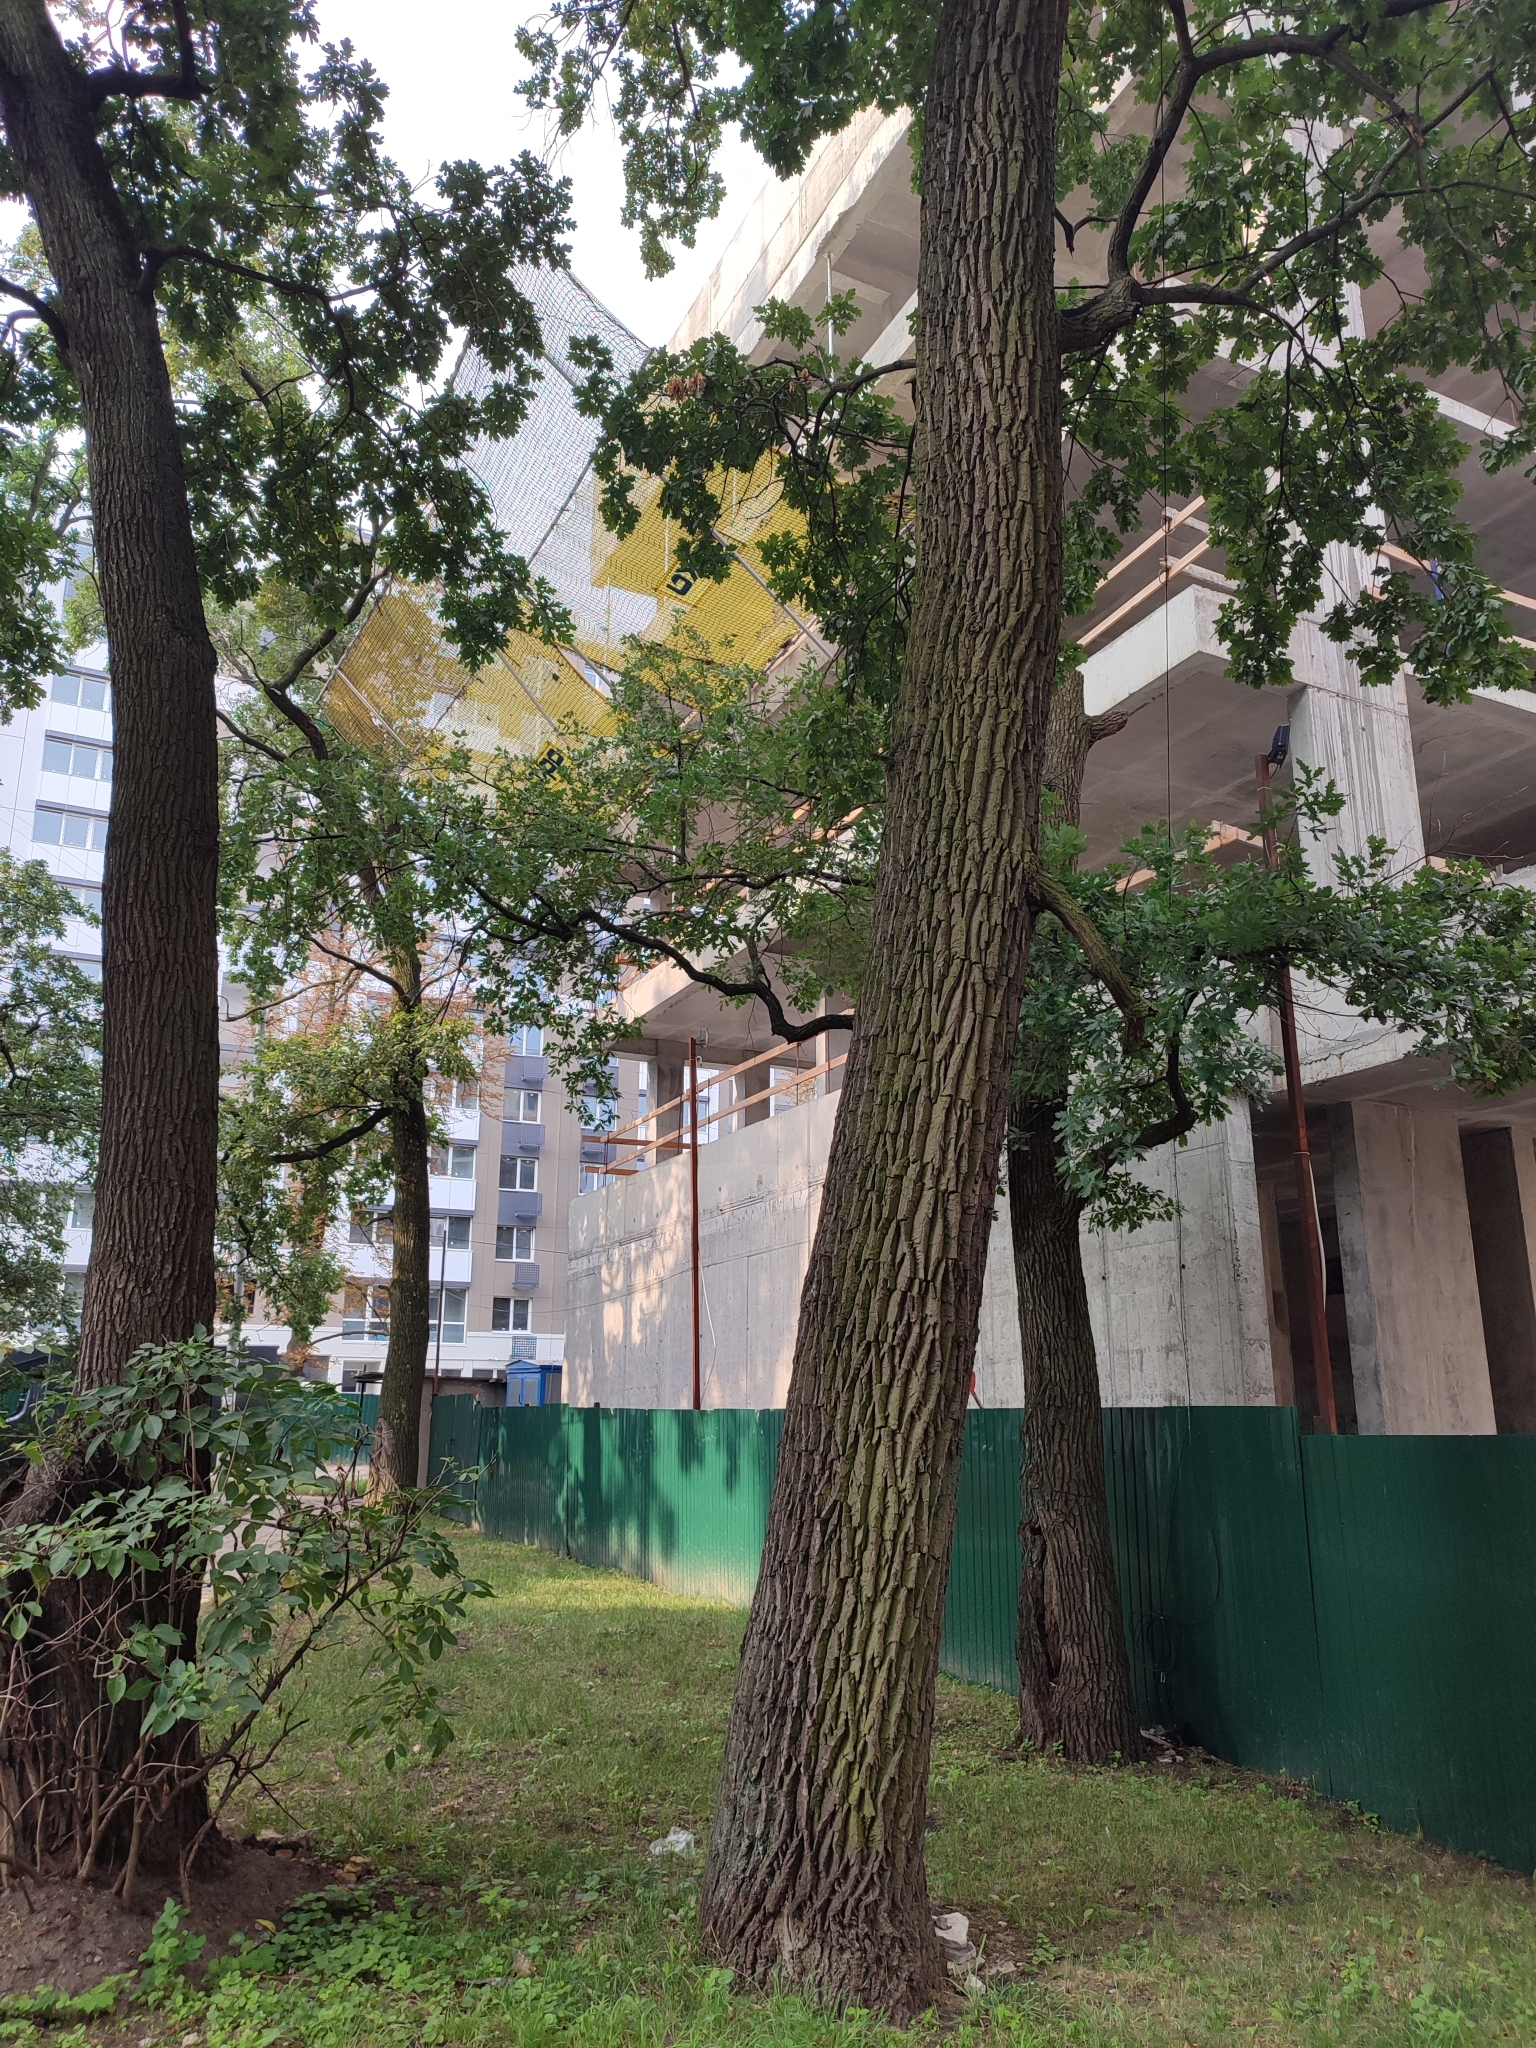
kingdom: Plantae
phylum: Tracheophyta
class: Magnoliopsida
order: Fagales
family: Fagaceae
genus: Quercus
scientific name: Quercus robur
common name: Pedunculate oak
